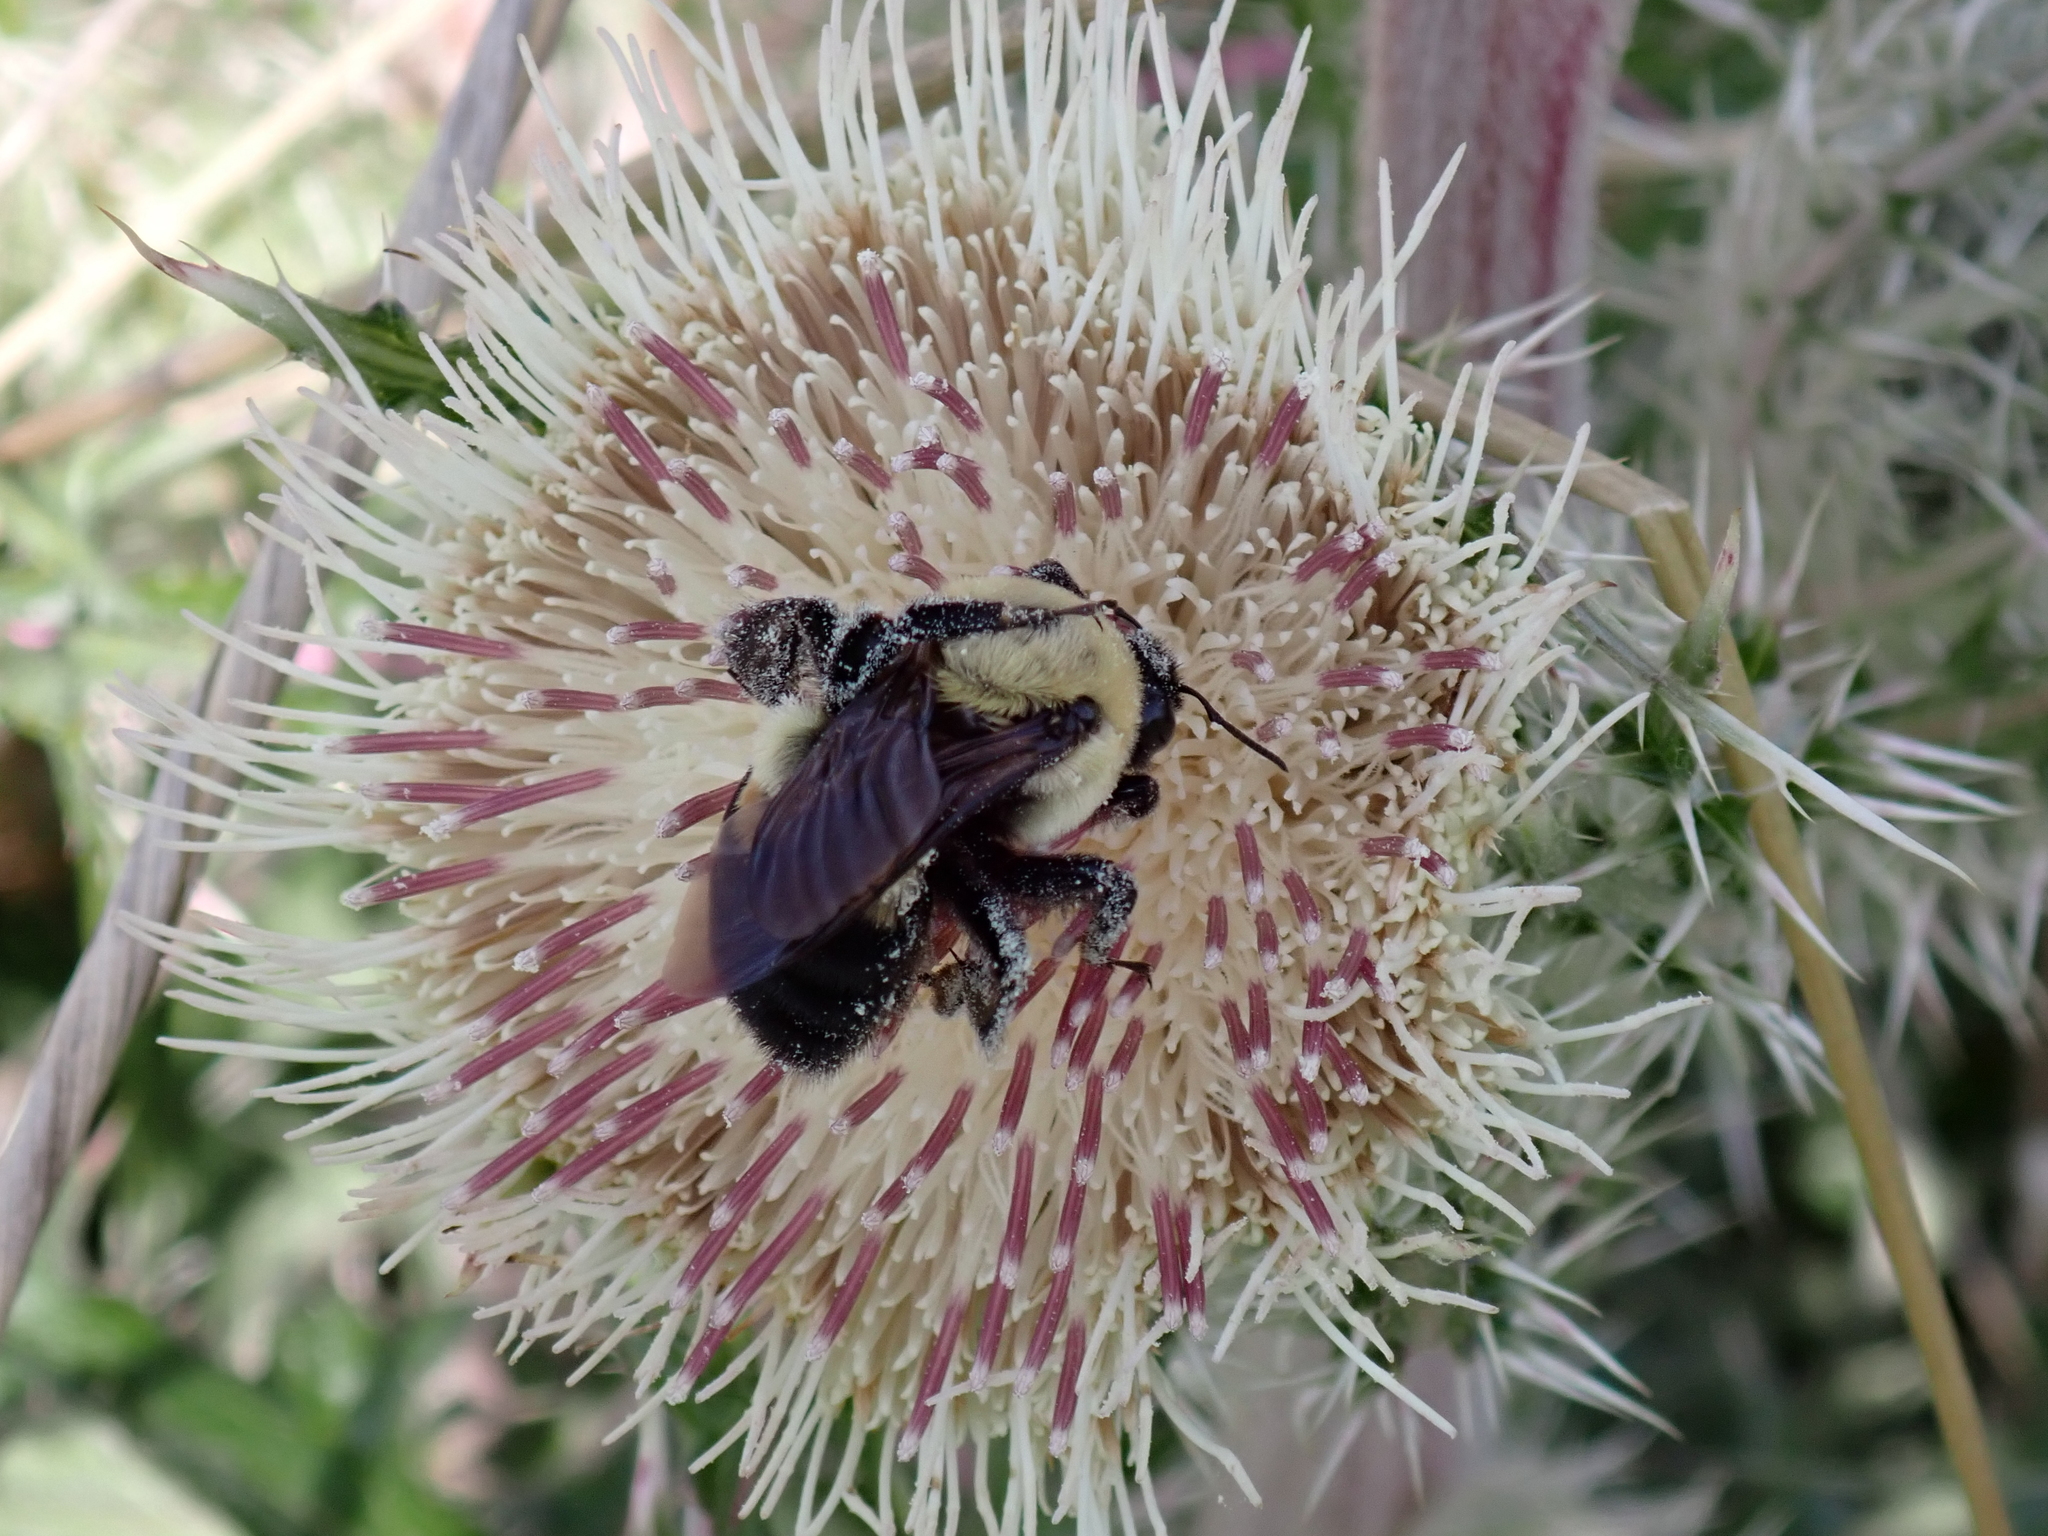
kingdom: Animalia
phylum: Arthropoda
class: Insecta
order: Hymenoptera
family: Apidae
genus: Bombus
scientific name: Bombus griseocollis
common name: Brown-belted bumble bee
